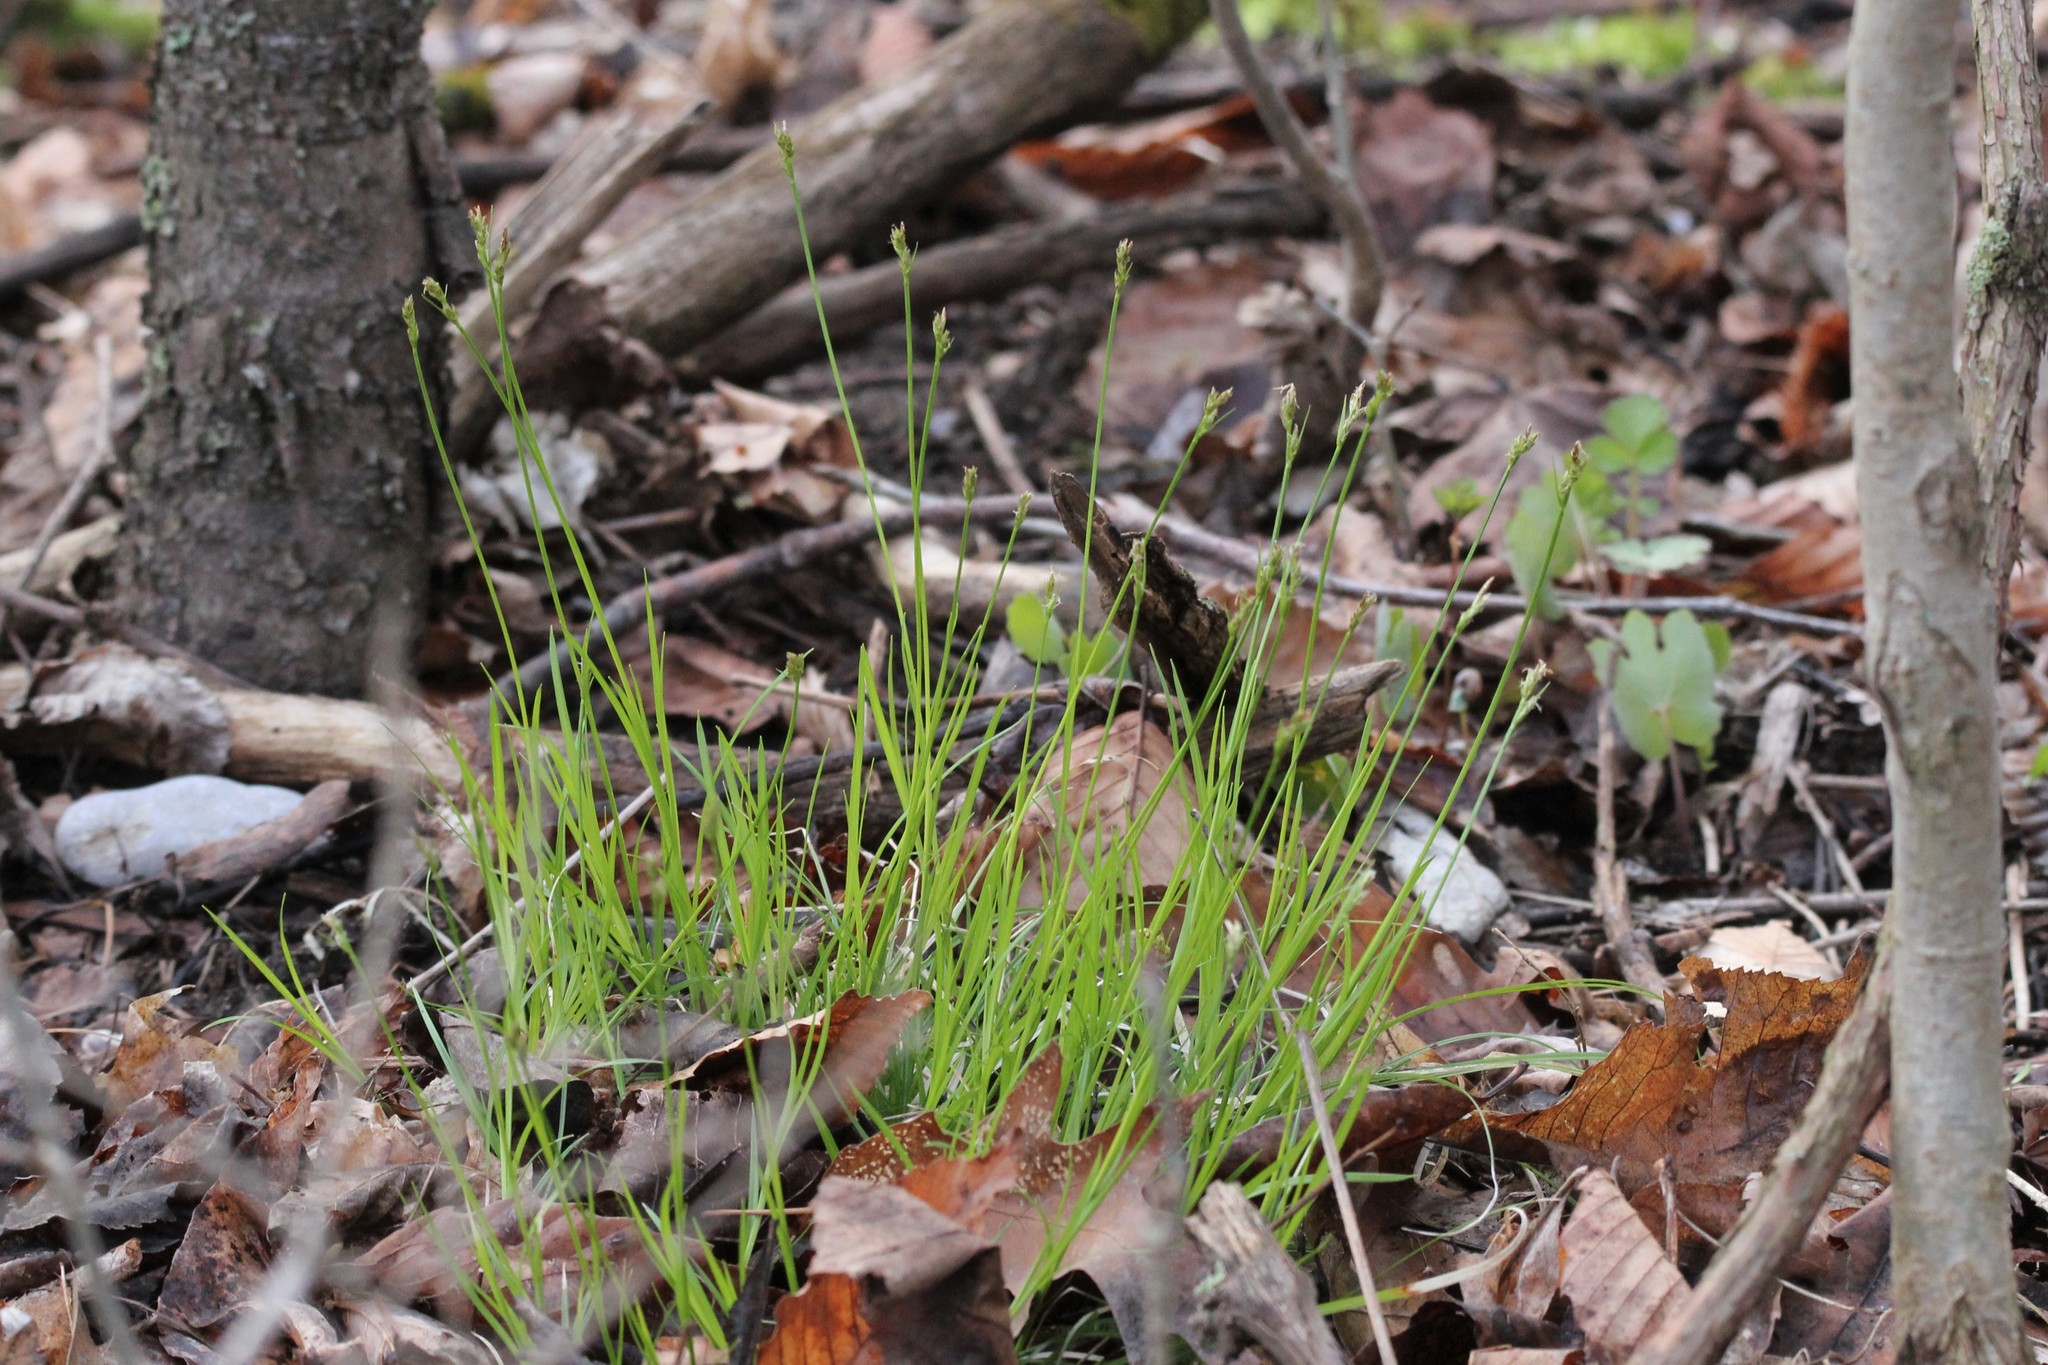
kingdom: Plantae
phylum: Tracheophyta
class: Liliopsida
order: Poales
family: Cyperaceae
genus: Carex
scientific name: Carex albicans
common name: Bellow-beaked sedge
